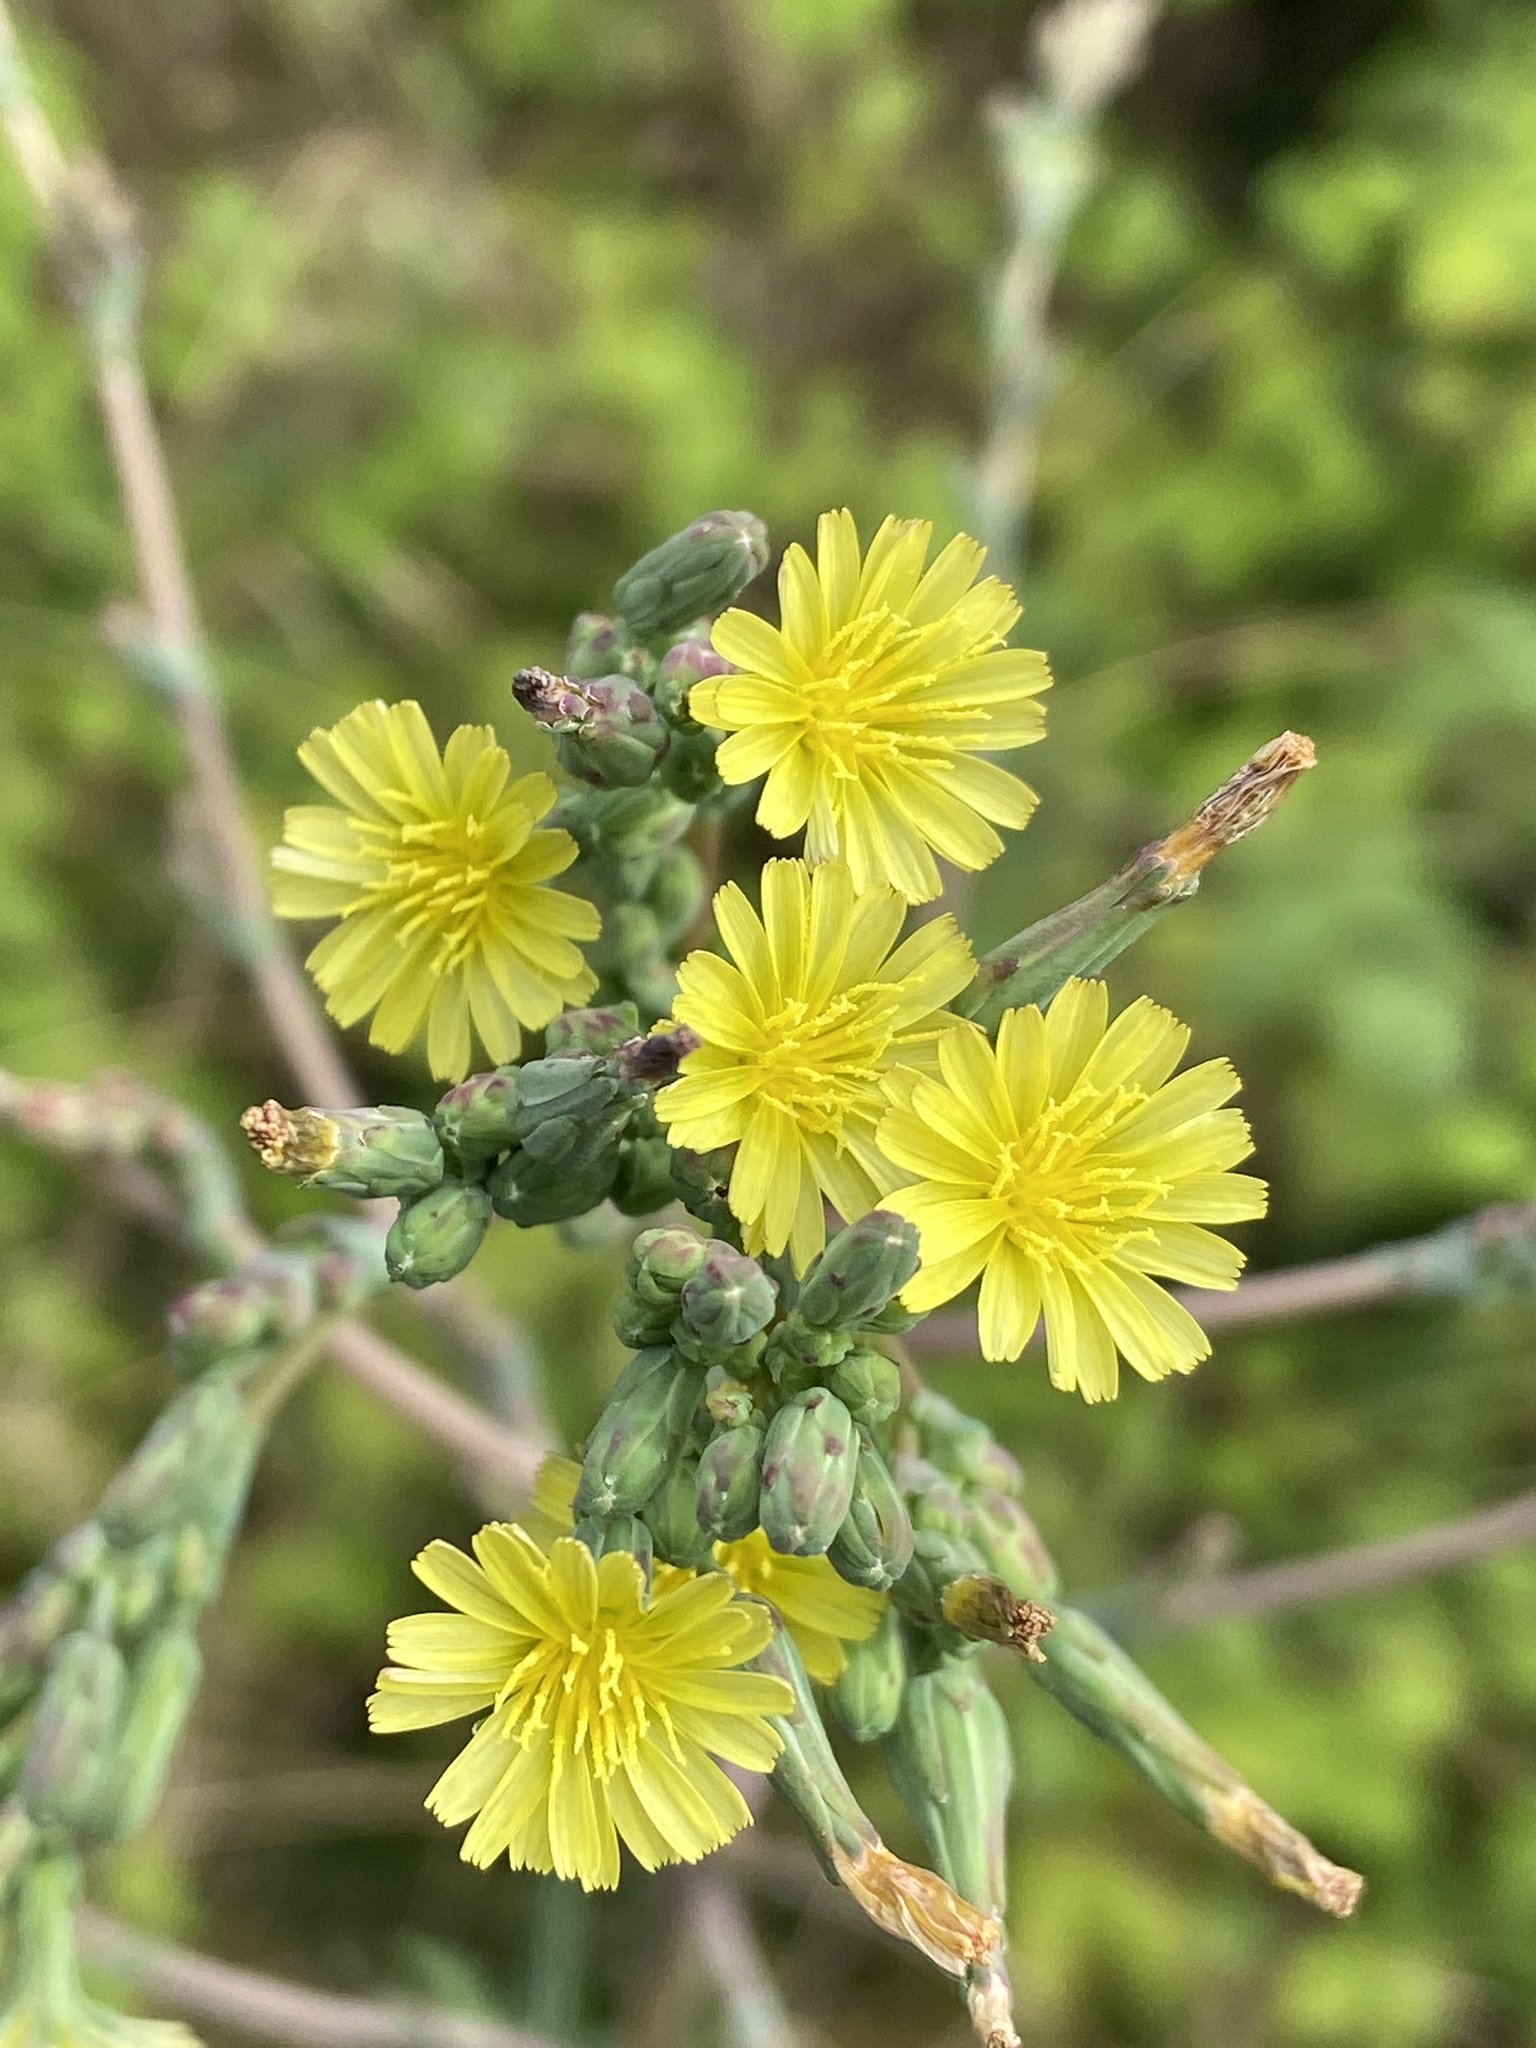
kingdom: Plantae
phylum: Tracheophyta
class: Magnoliopsida
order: Asterales
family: Asteraceae
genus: Lactuca
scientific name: Lactuca serriola
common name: Prickly lettuce
